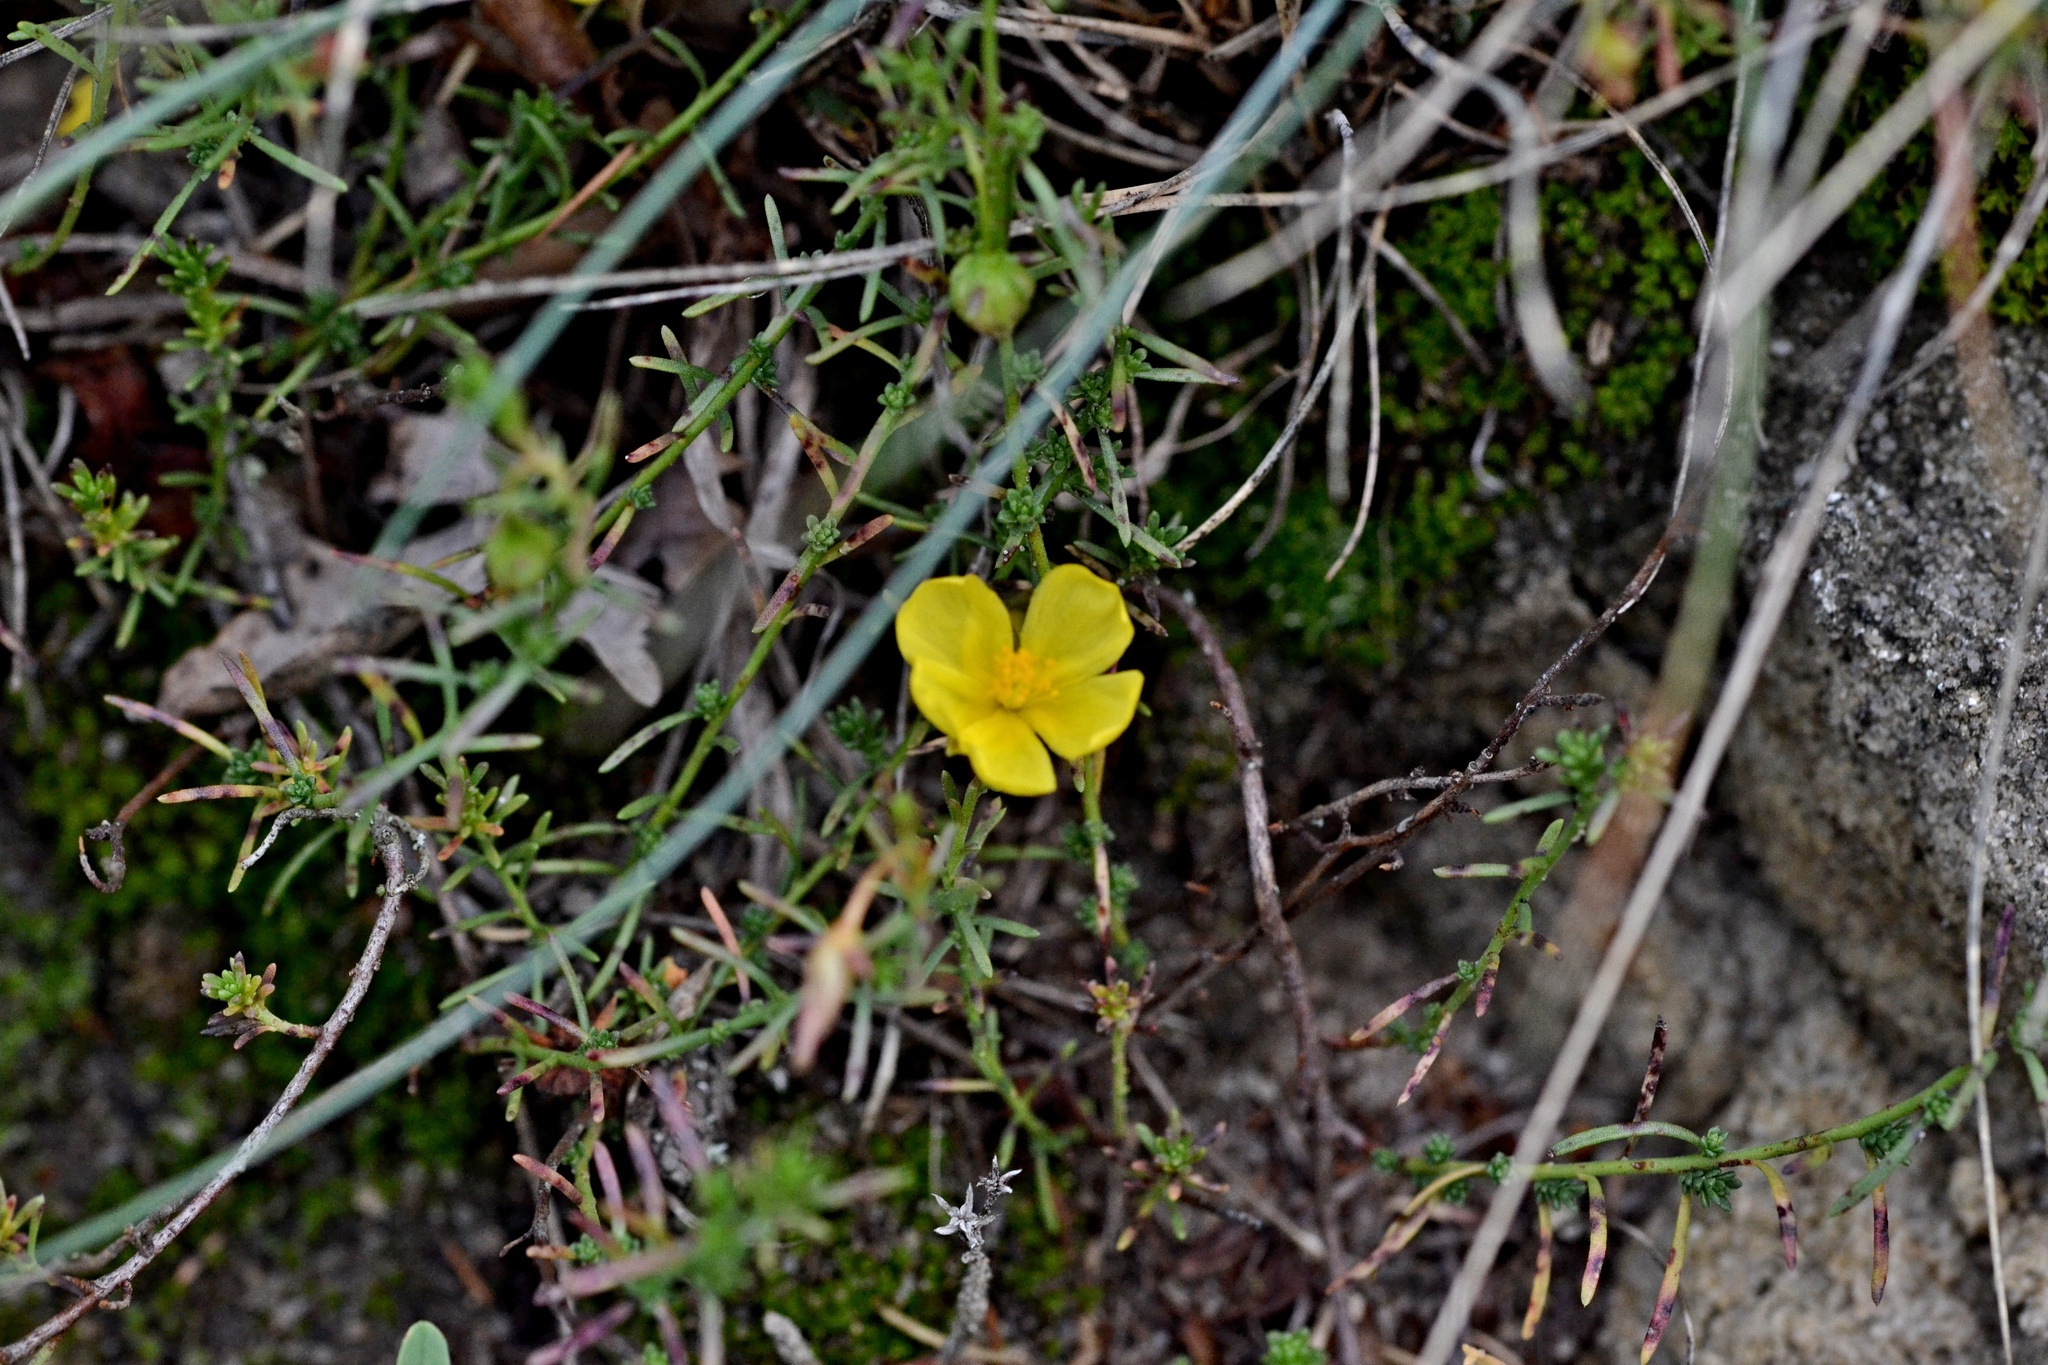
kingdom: Plantae
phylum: Tracheophyta
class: Magnoliopsida
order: Malvales
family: Cistaceae
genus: Fumana
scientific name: Fumana procumbens
